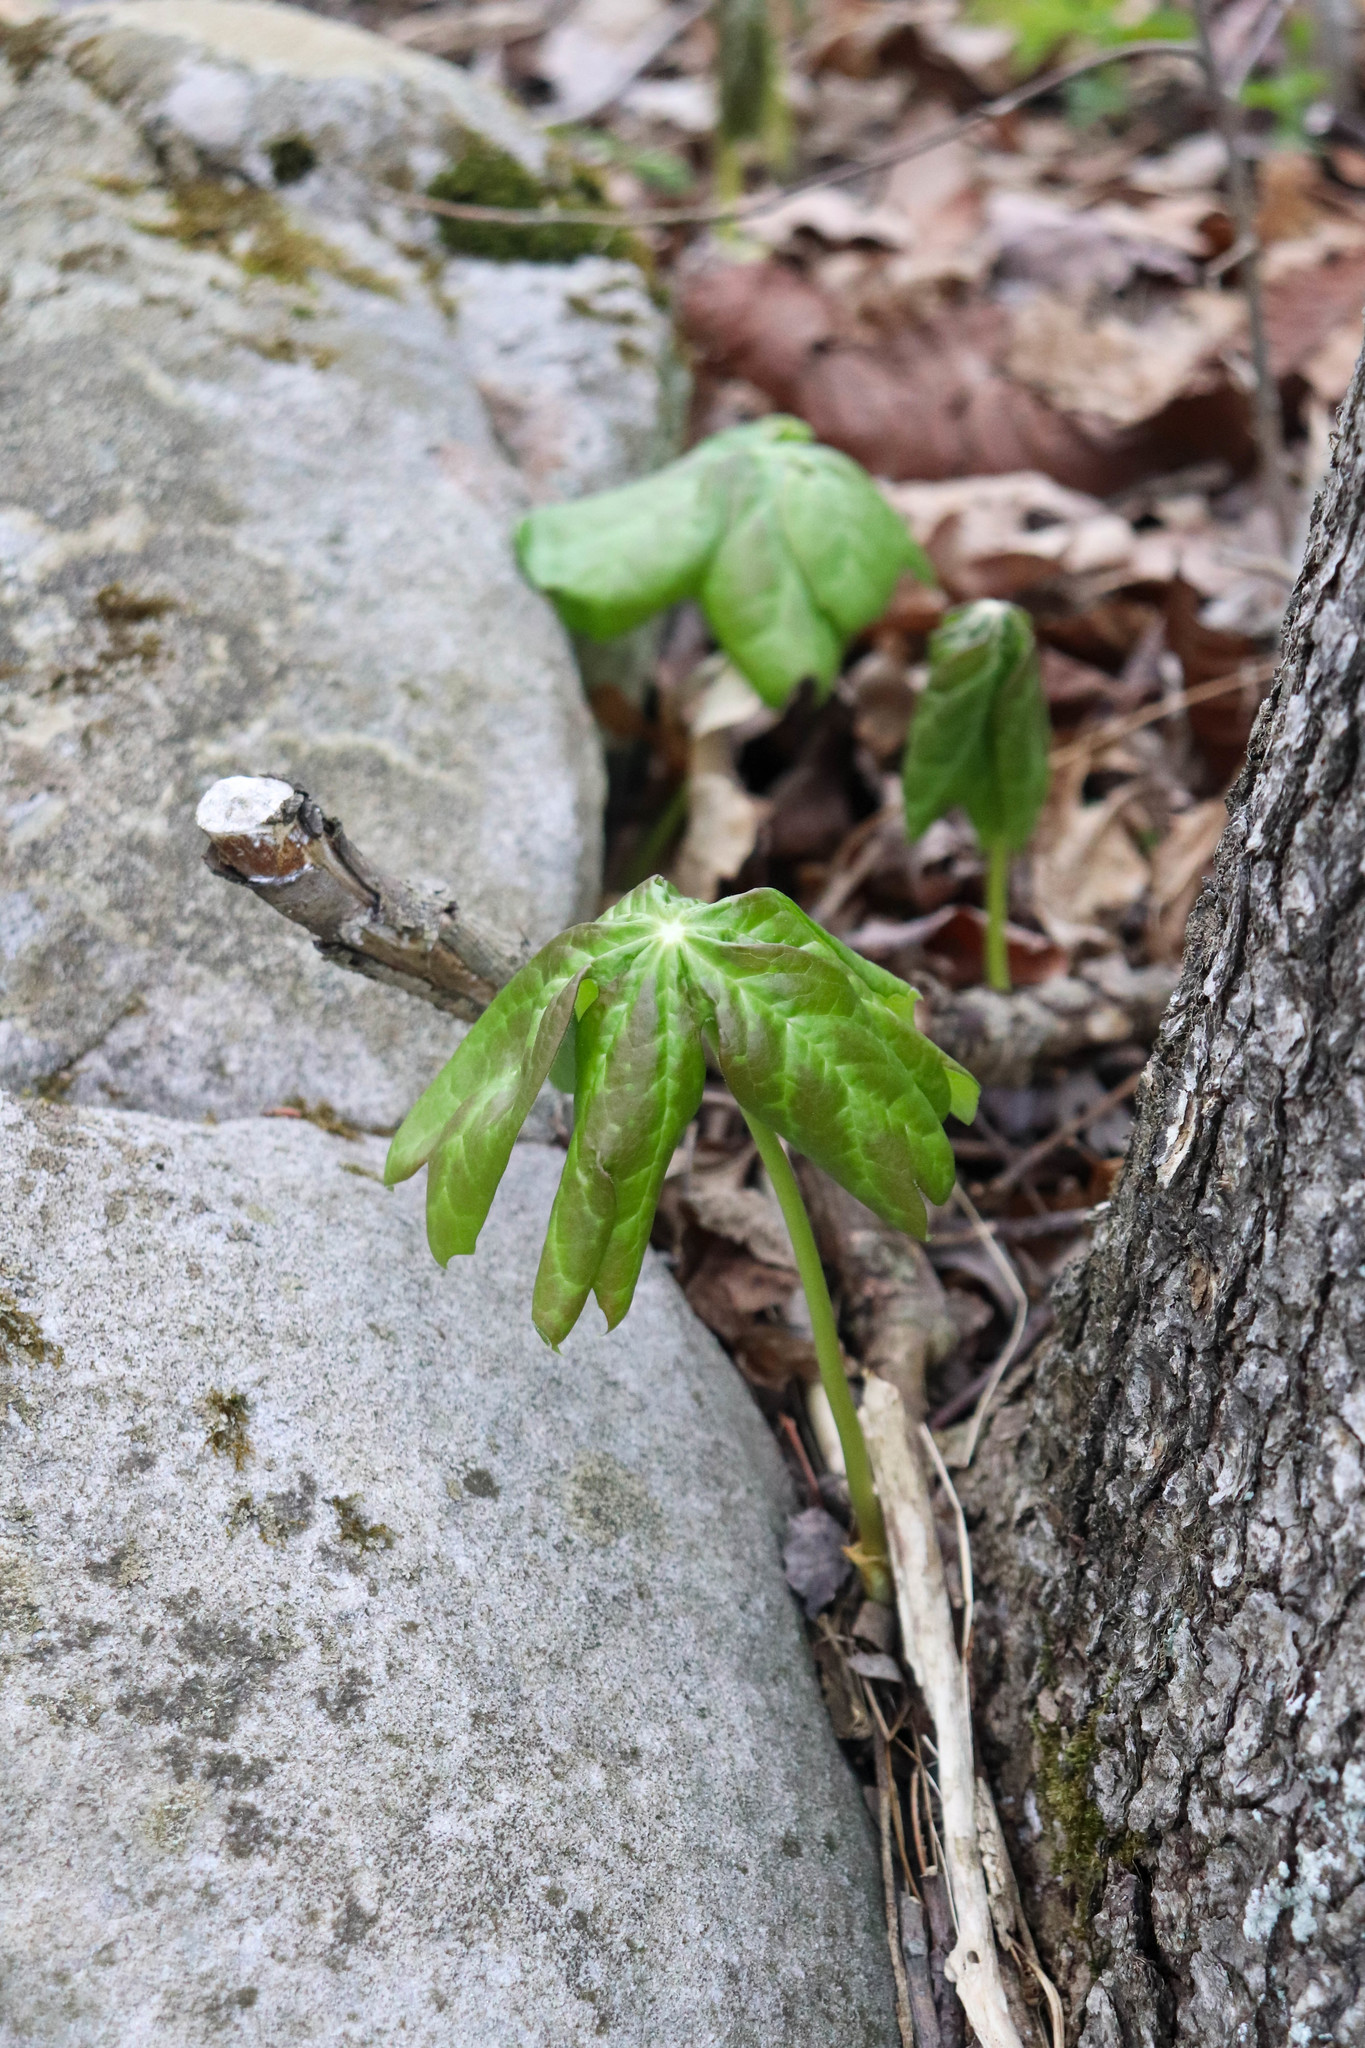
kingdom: Plantae
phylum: Tracheophyta
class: Magnoliopsida
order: Ranunculales
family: Berberidaceae
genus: Podophyllum
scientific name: Podophyllum peltatum
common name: Wild mandrake
